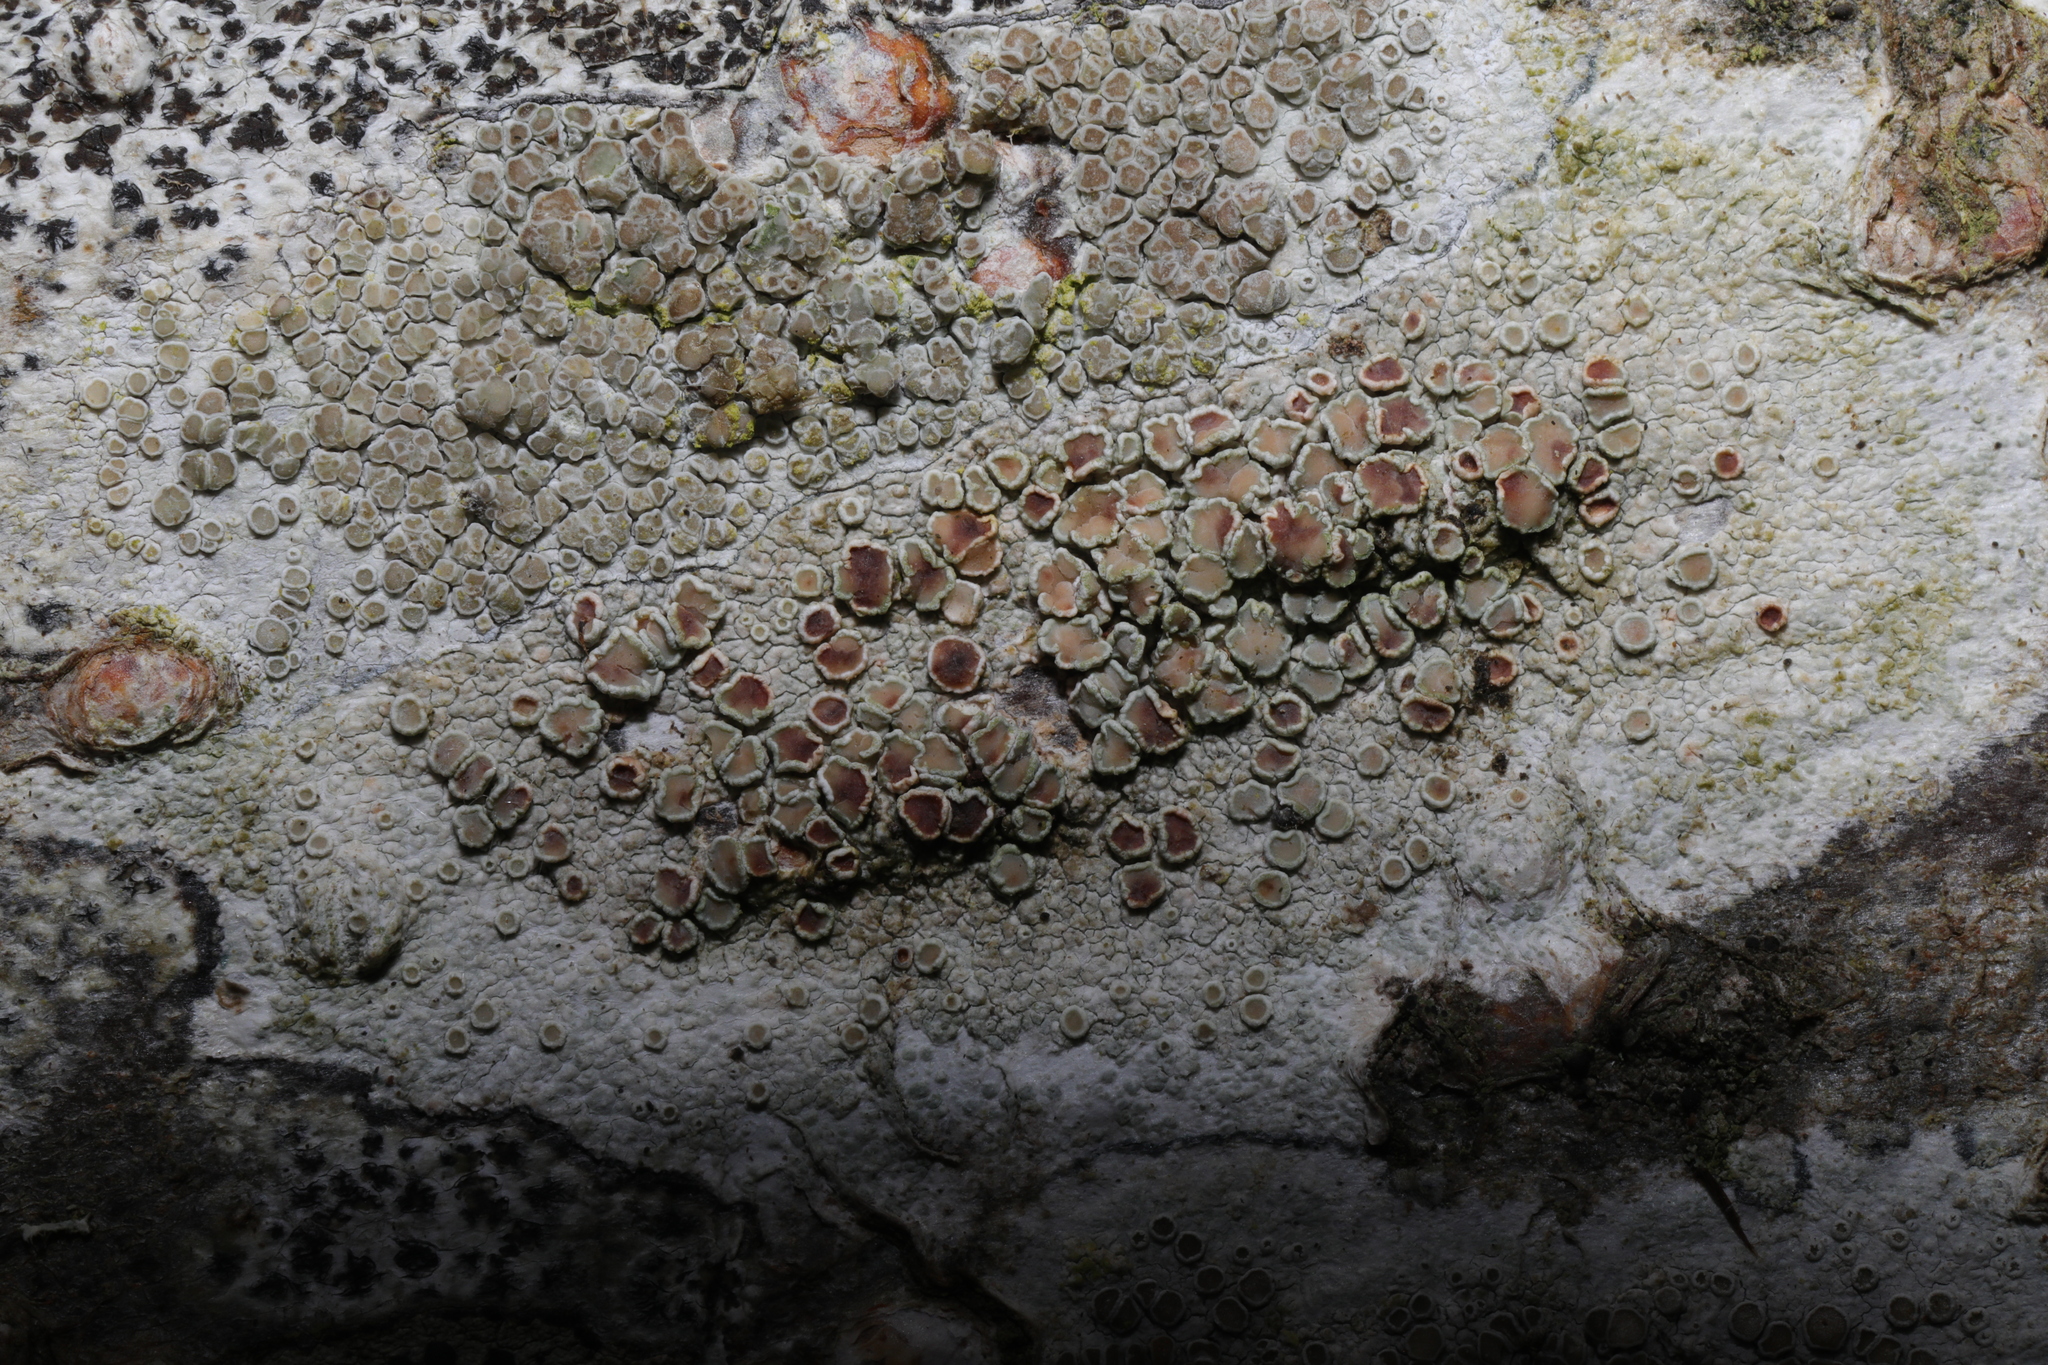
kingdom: Fungi
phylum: Ascomycota
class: Lecanoromycetes
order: Lecanorales
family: Lecanoraceae
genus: Lecanora
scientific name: Lecanora chlarotera
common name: Brown rim-lichen
